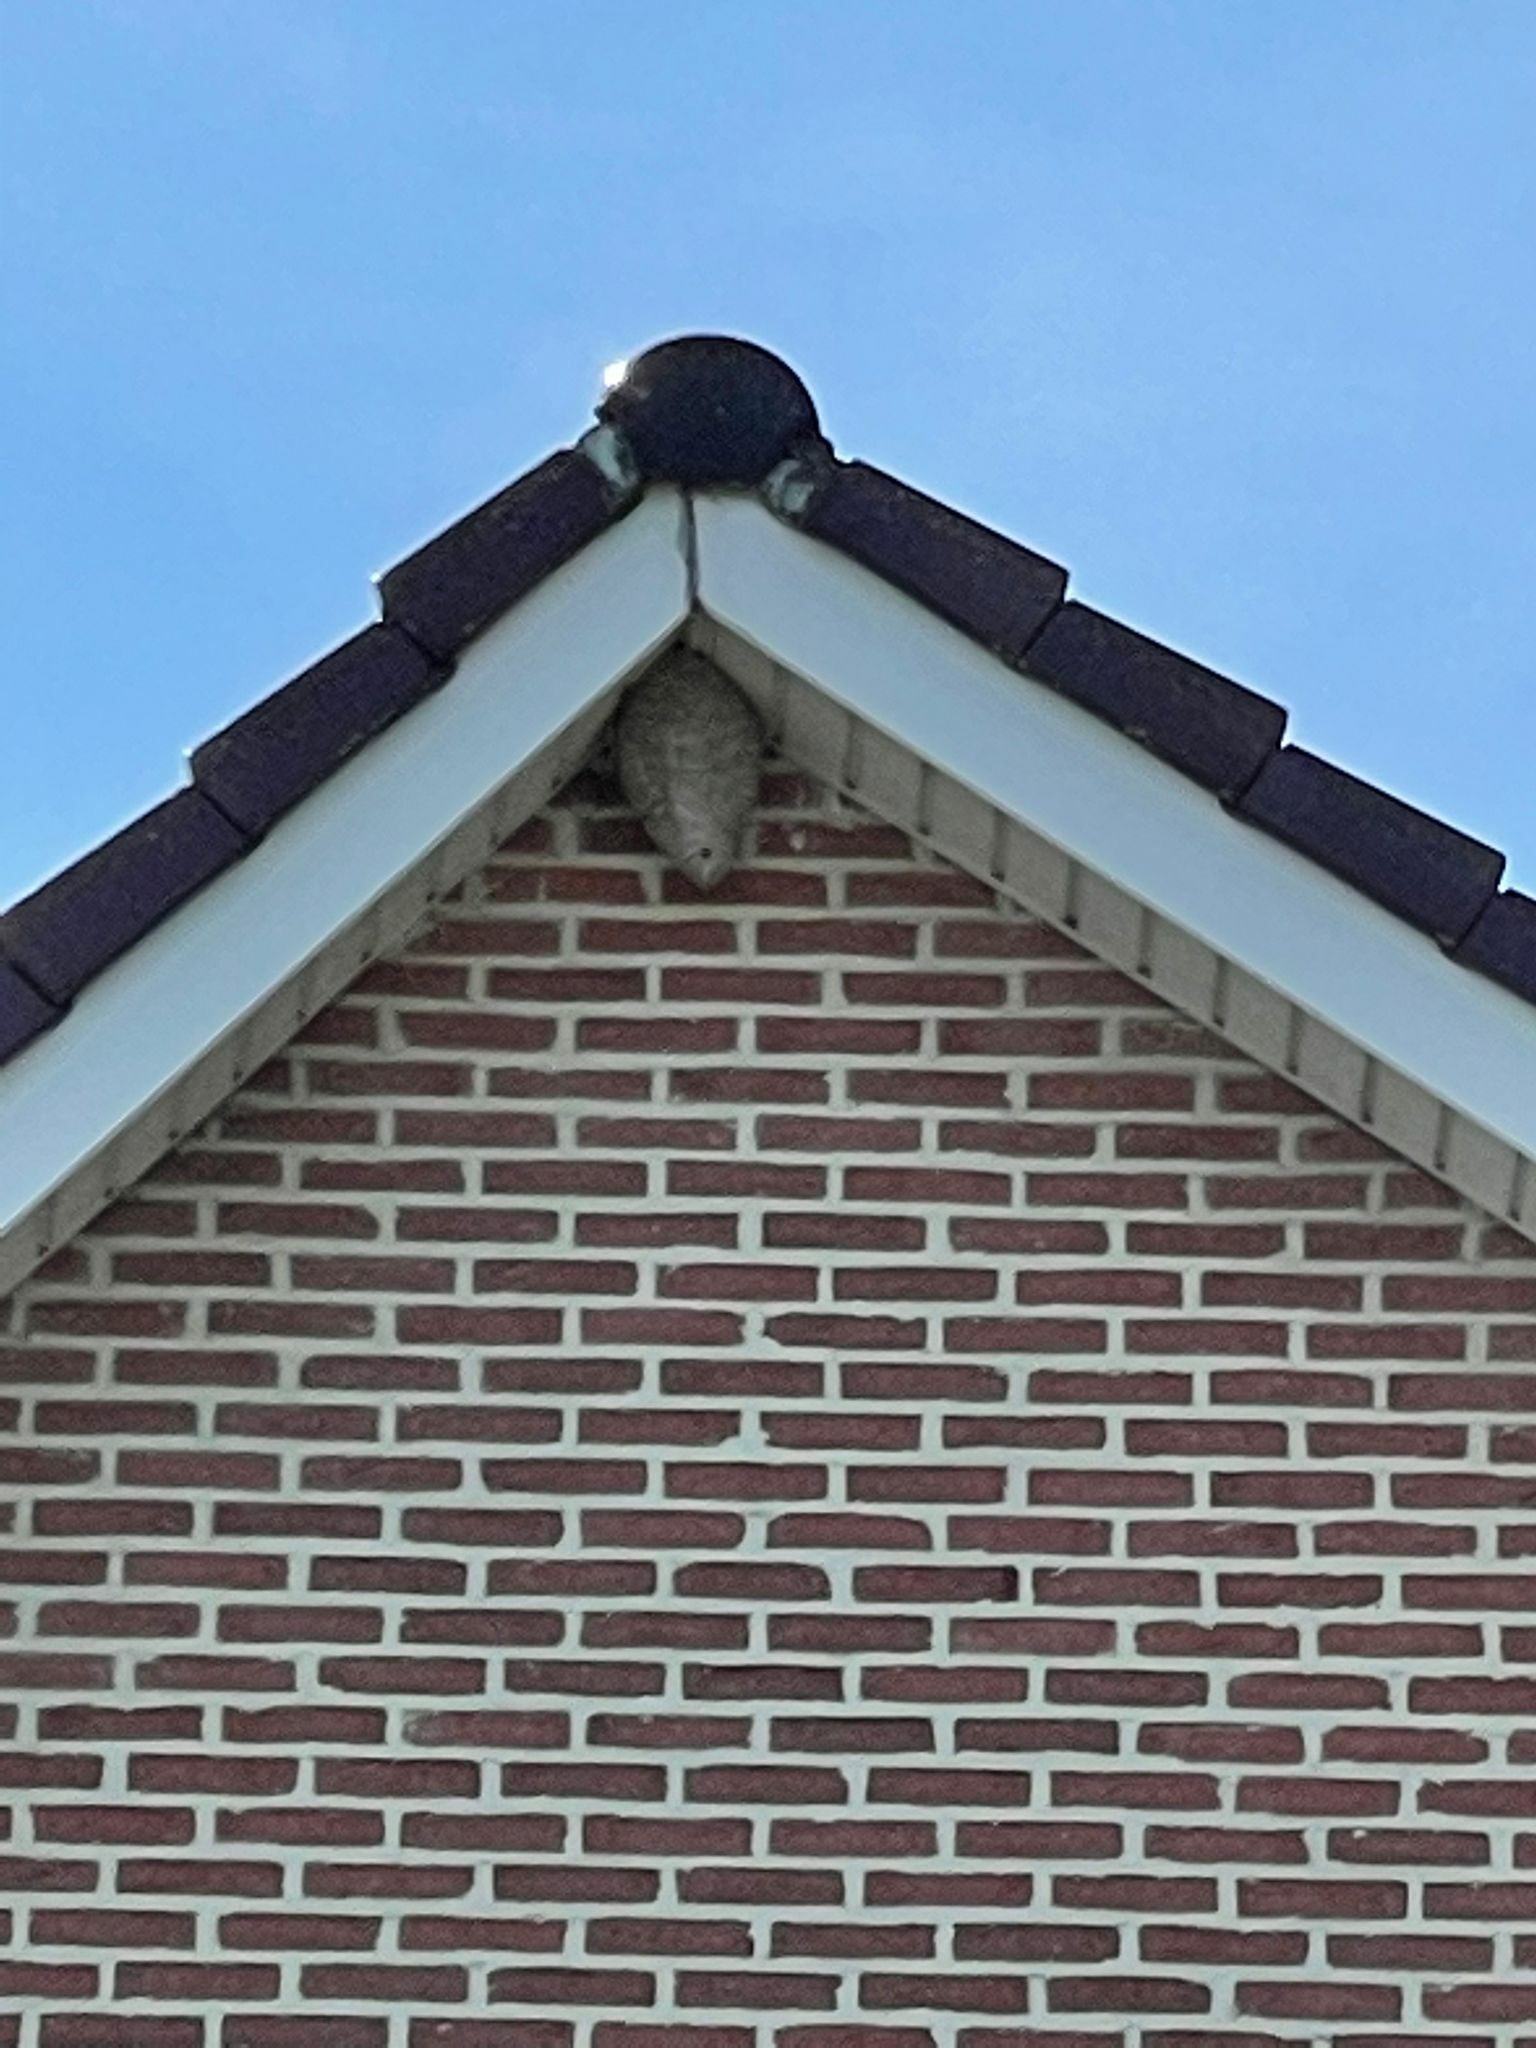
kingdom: Animalia
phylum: Arthropoda
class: Insecta
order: Hymenoptera
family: Vespidae
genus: Dolichovespula
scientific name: Dolichovespula media
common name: Median wasp
